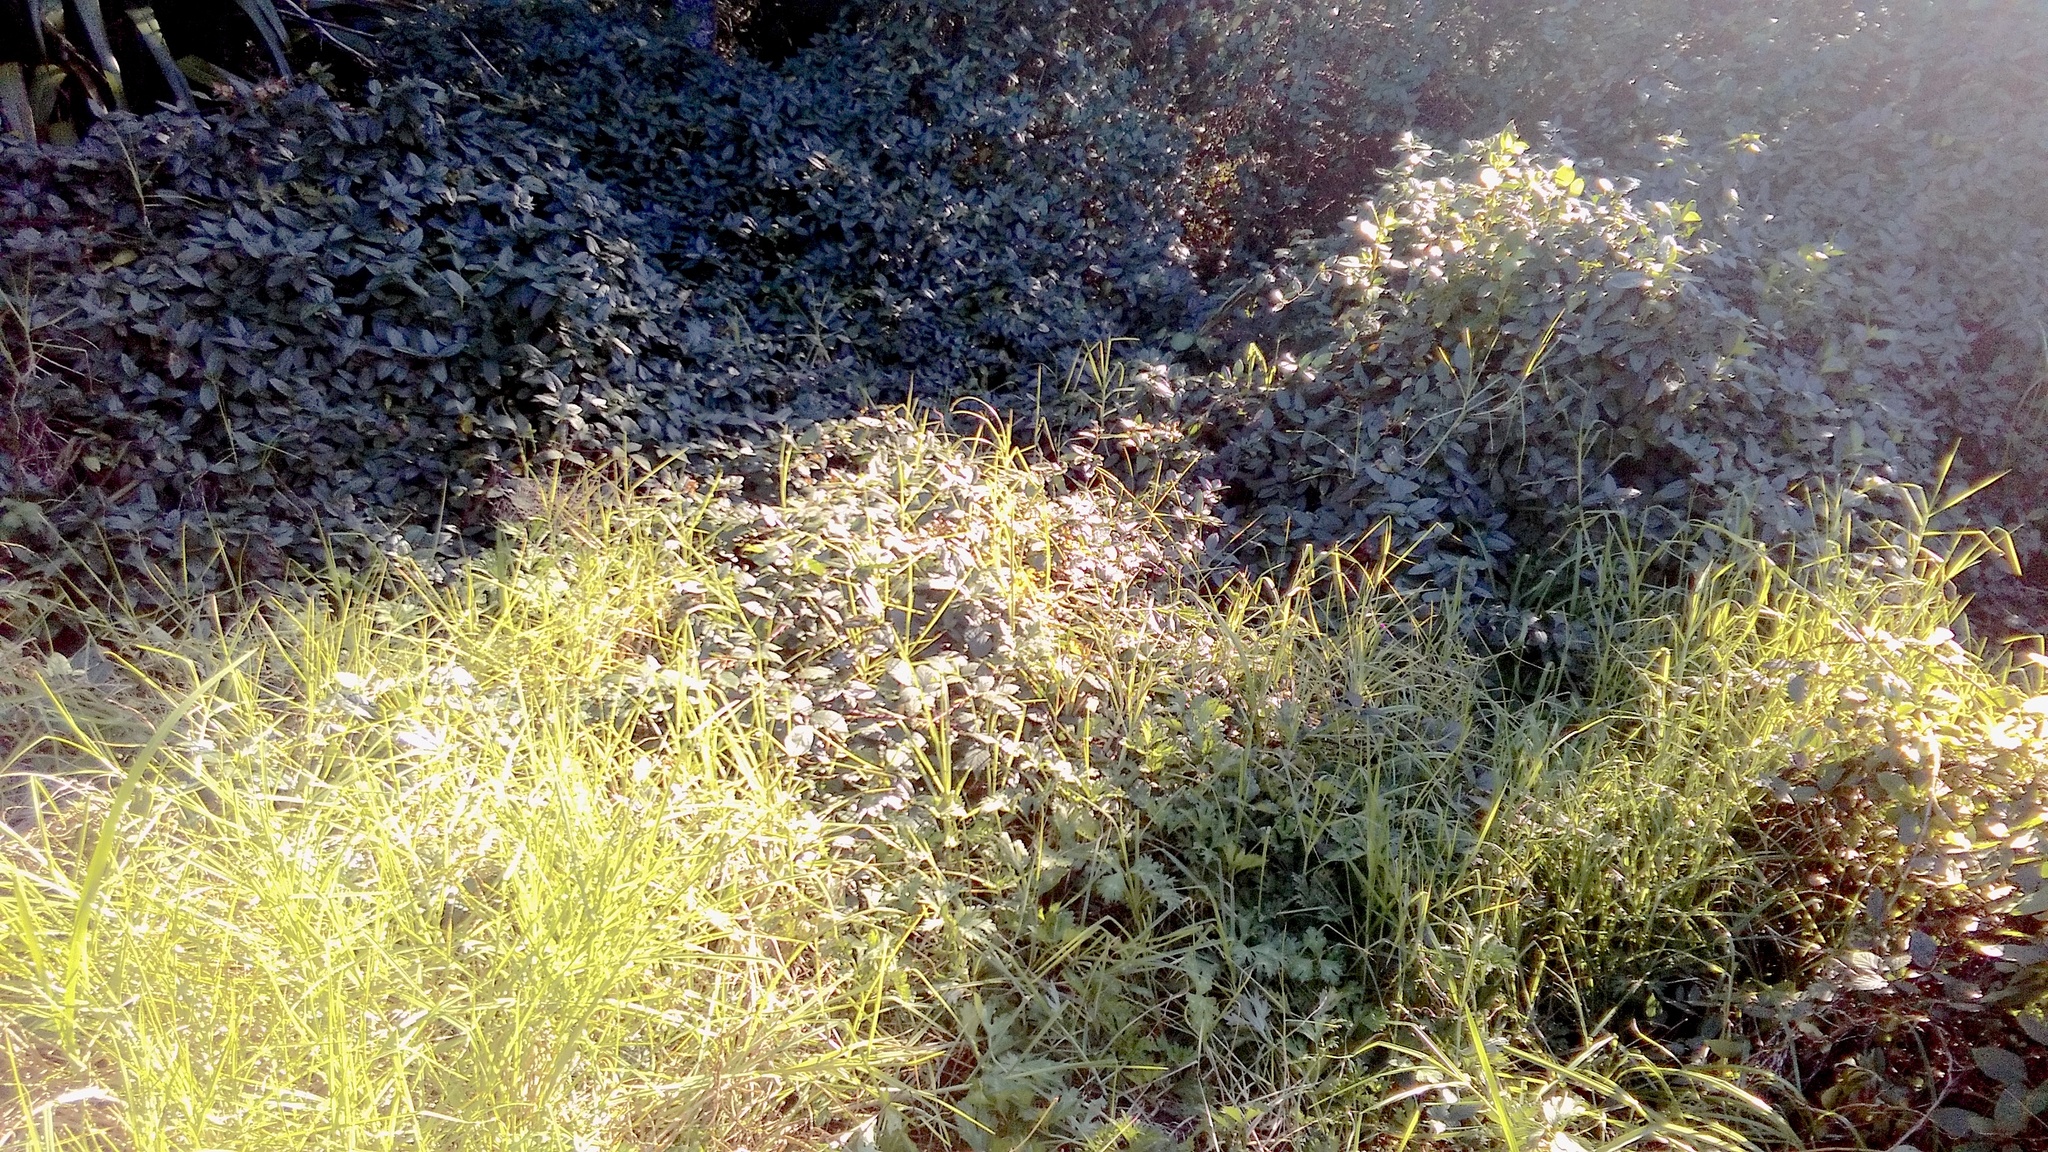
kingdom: Plantae
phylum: Tracheophyta
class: Liliopsida
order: Poales
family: Poaceae
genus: Cenchrus
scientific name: Cenchrus clandestinus
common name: Kikuyugrass
